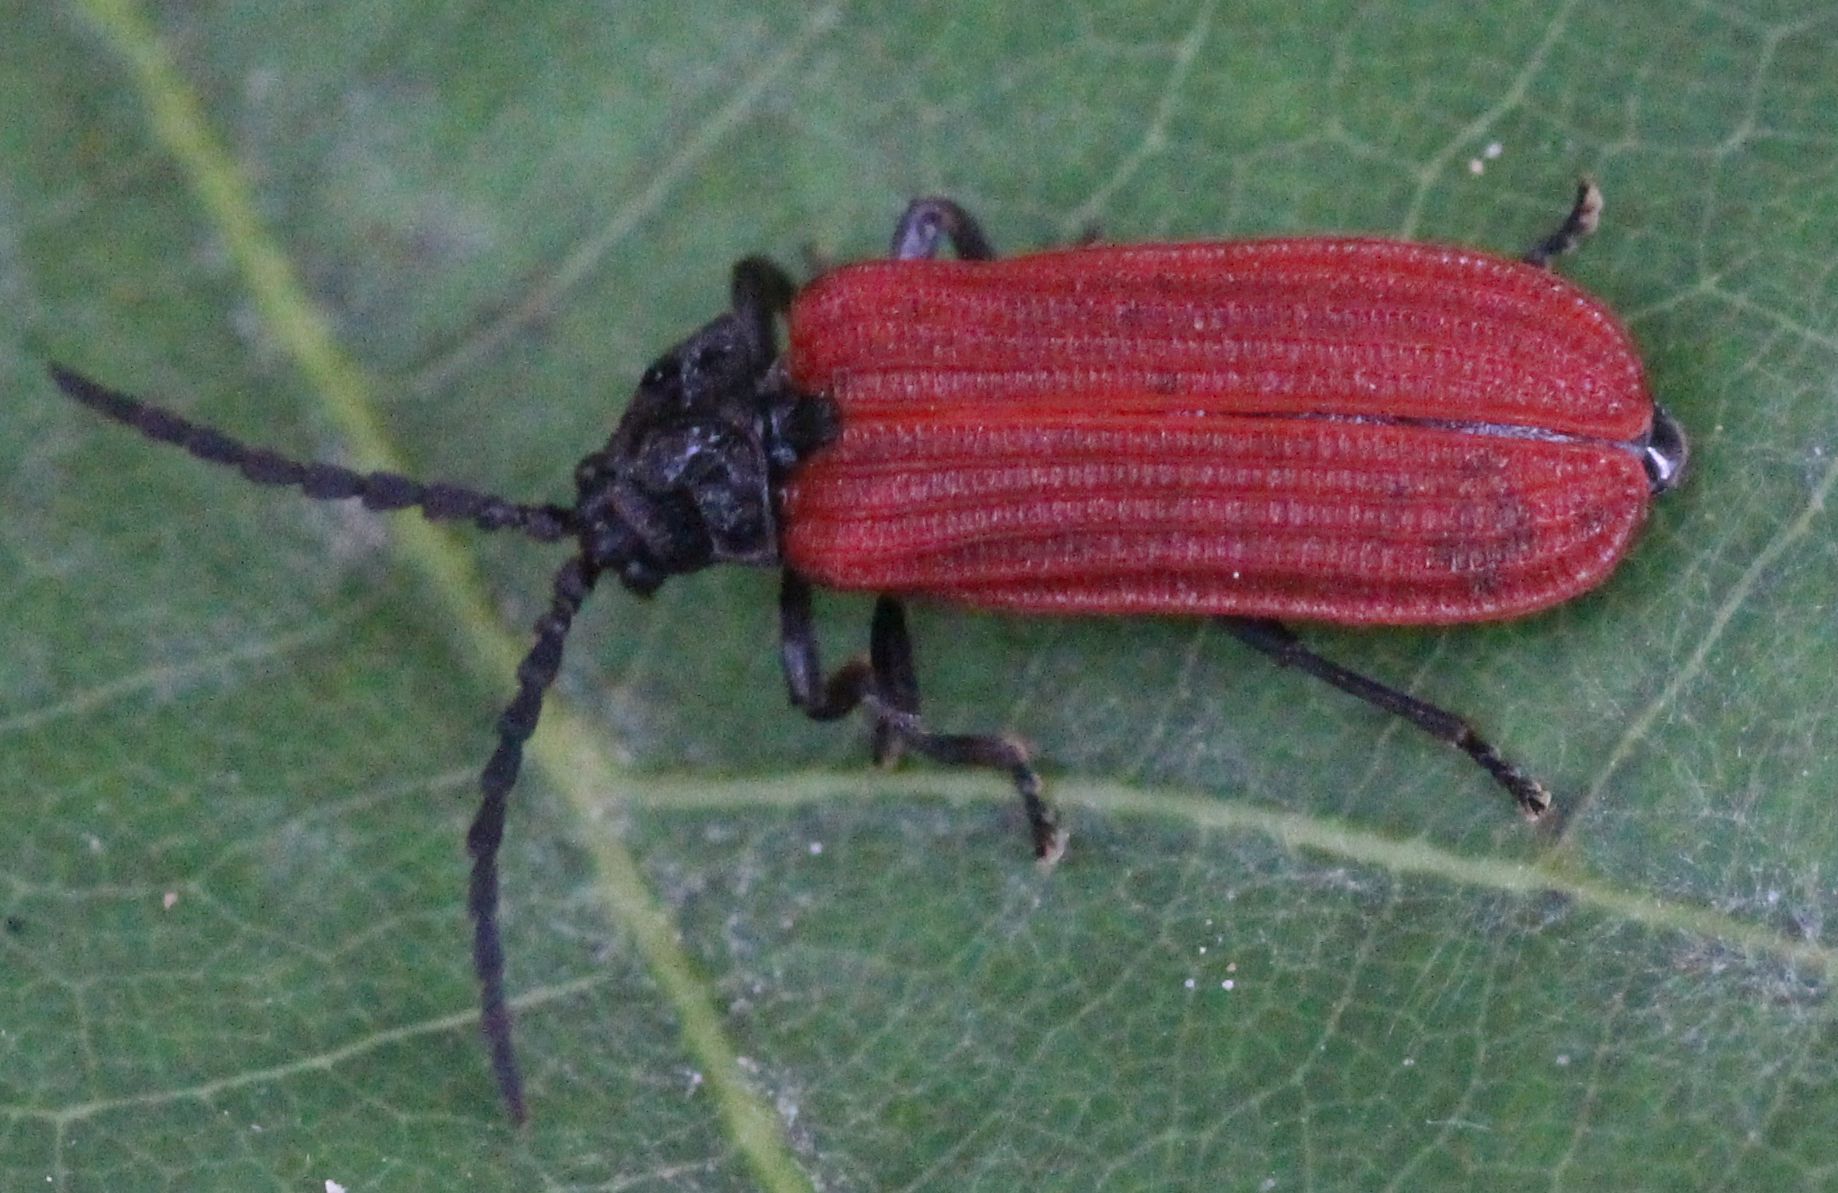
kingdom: Animalia
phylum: Arthropoda
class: Insecta
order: Coleoptera
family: Lycidae
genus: Pyropterus
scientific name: Pyropterus nigroruber
